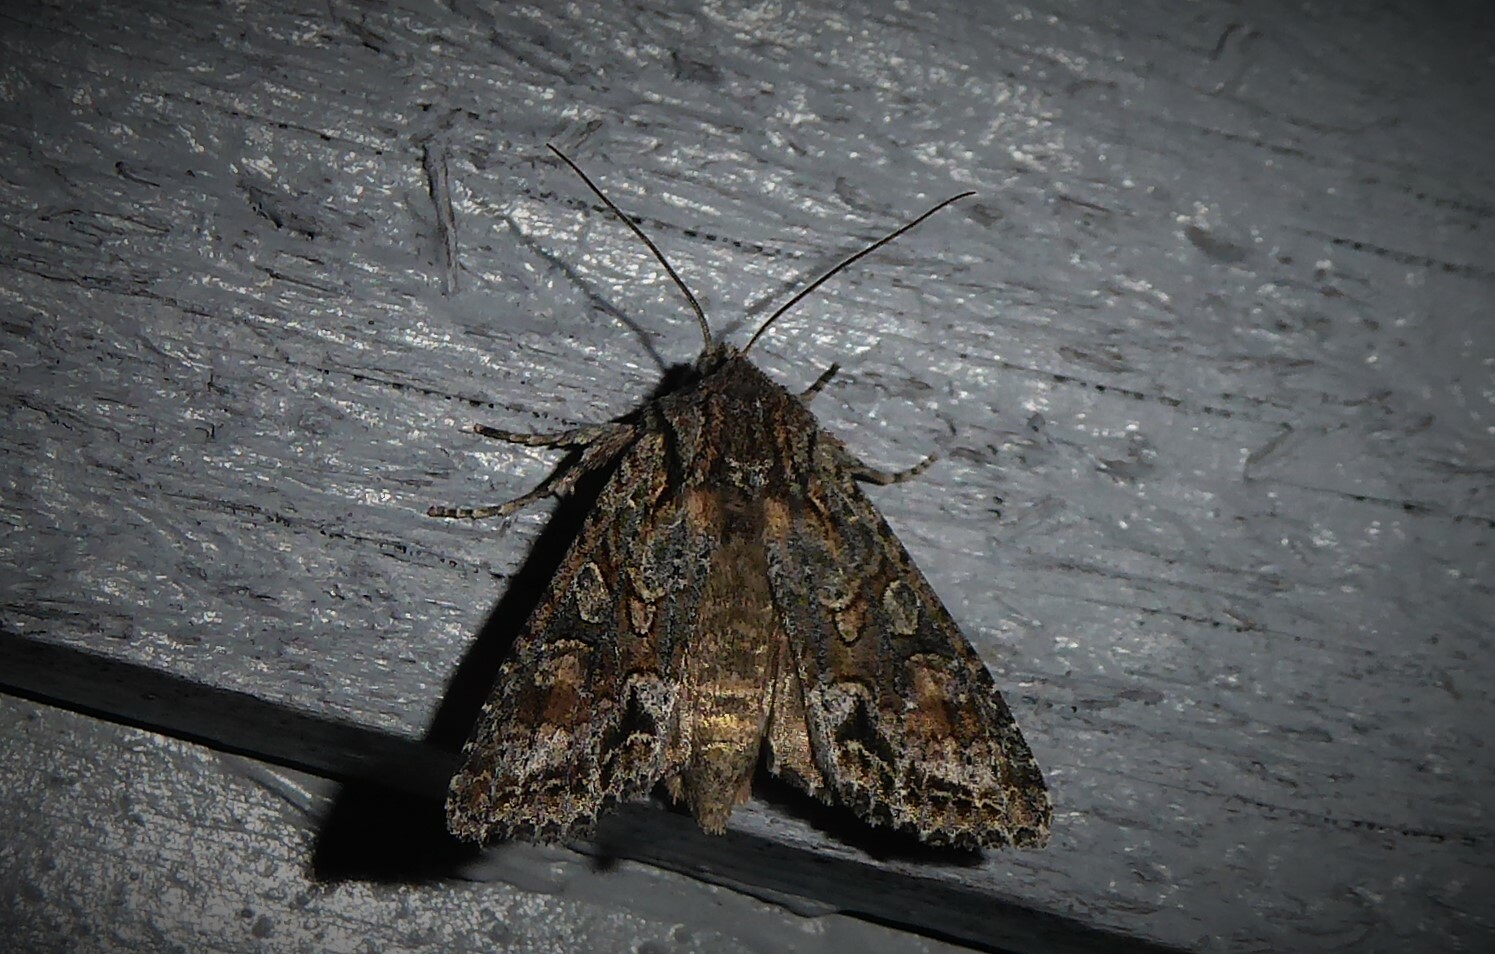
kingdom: Animalia
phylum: Arthropoda
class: Insecta
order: Lepidoptera
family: Noctuidae
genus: Ichneutica
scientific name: Ichneutica mutans
